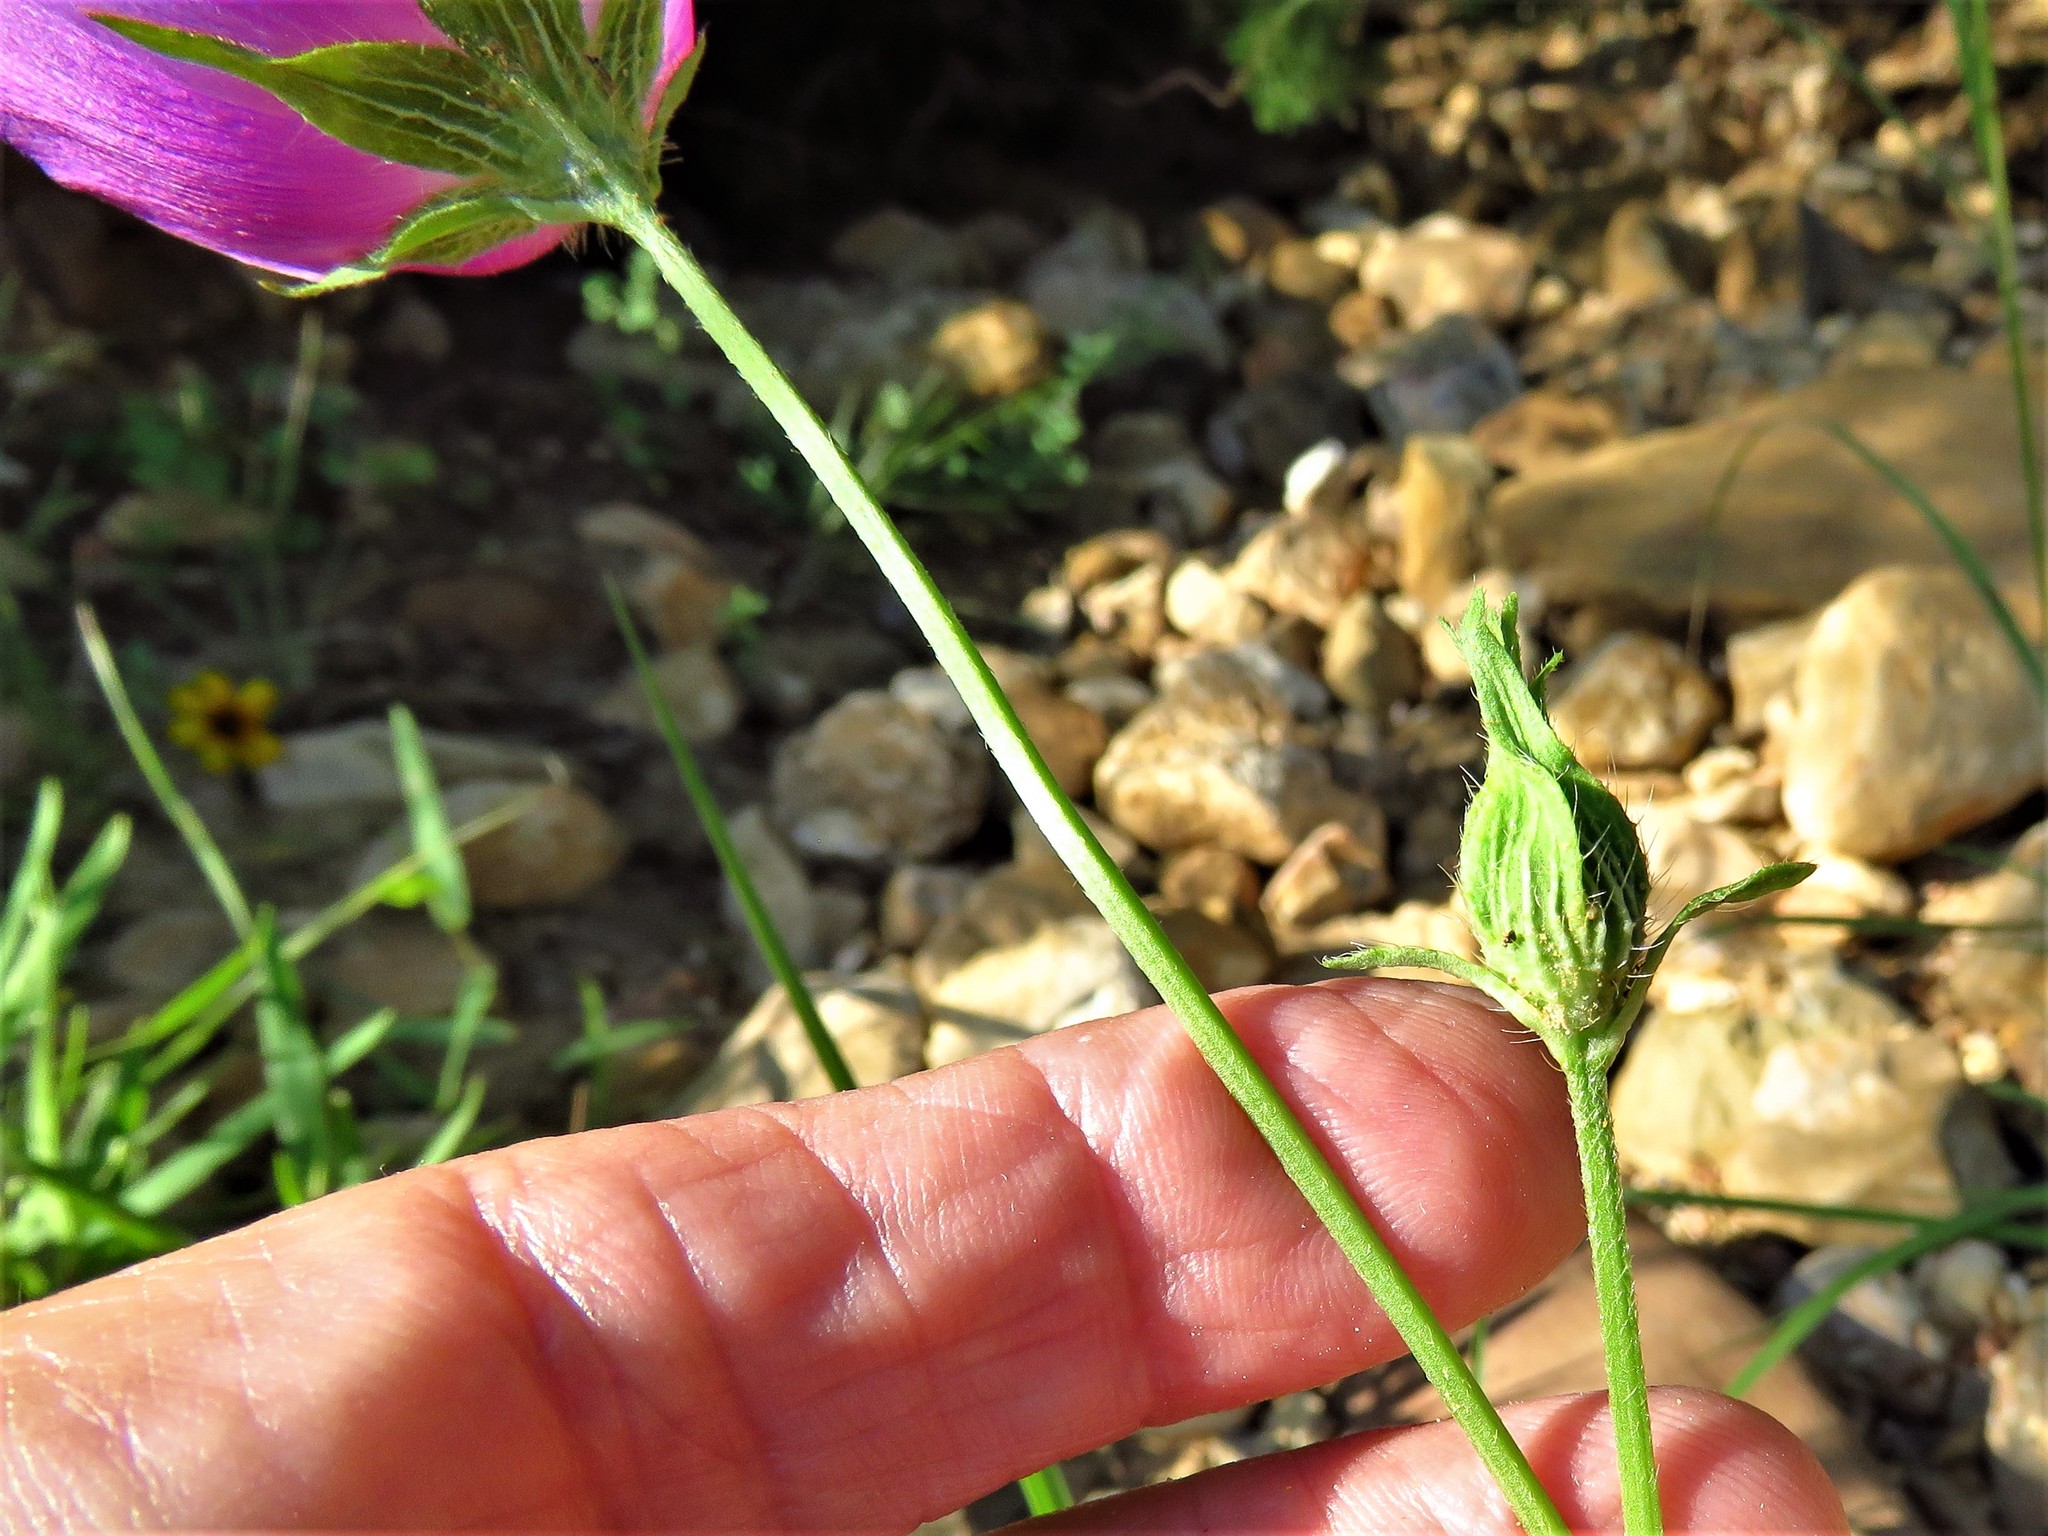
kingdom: Plantae
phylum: Tracheophyta
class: Magnoliopsida
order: Malvales
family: Malvaceae
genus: Callirhoe
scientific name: Callirhoe involucrata
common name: Purple poppy-mallow
